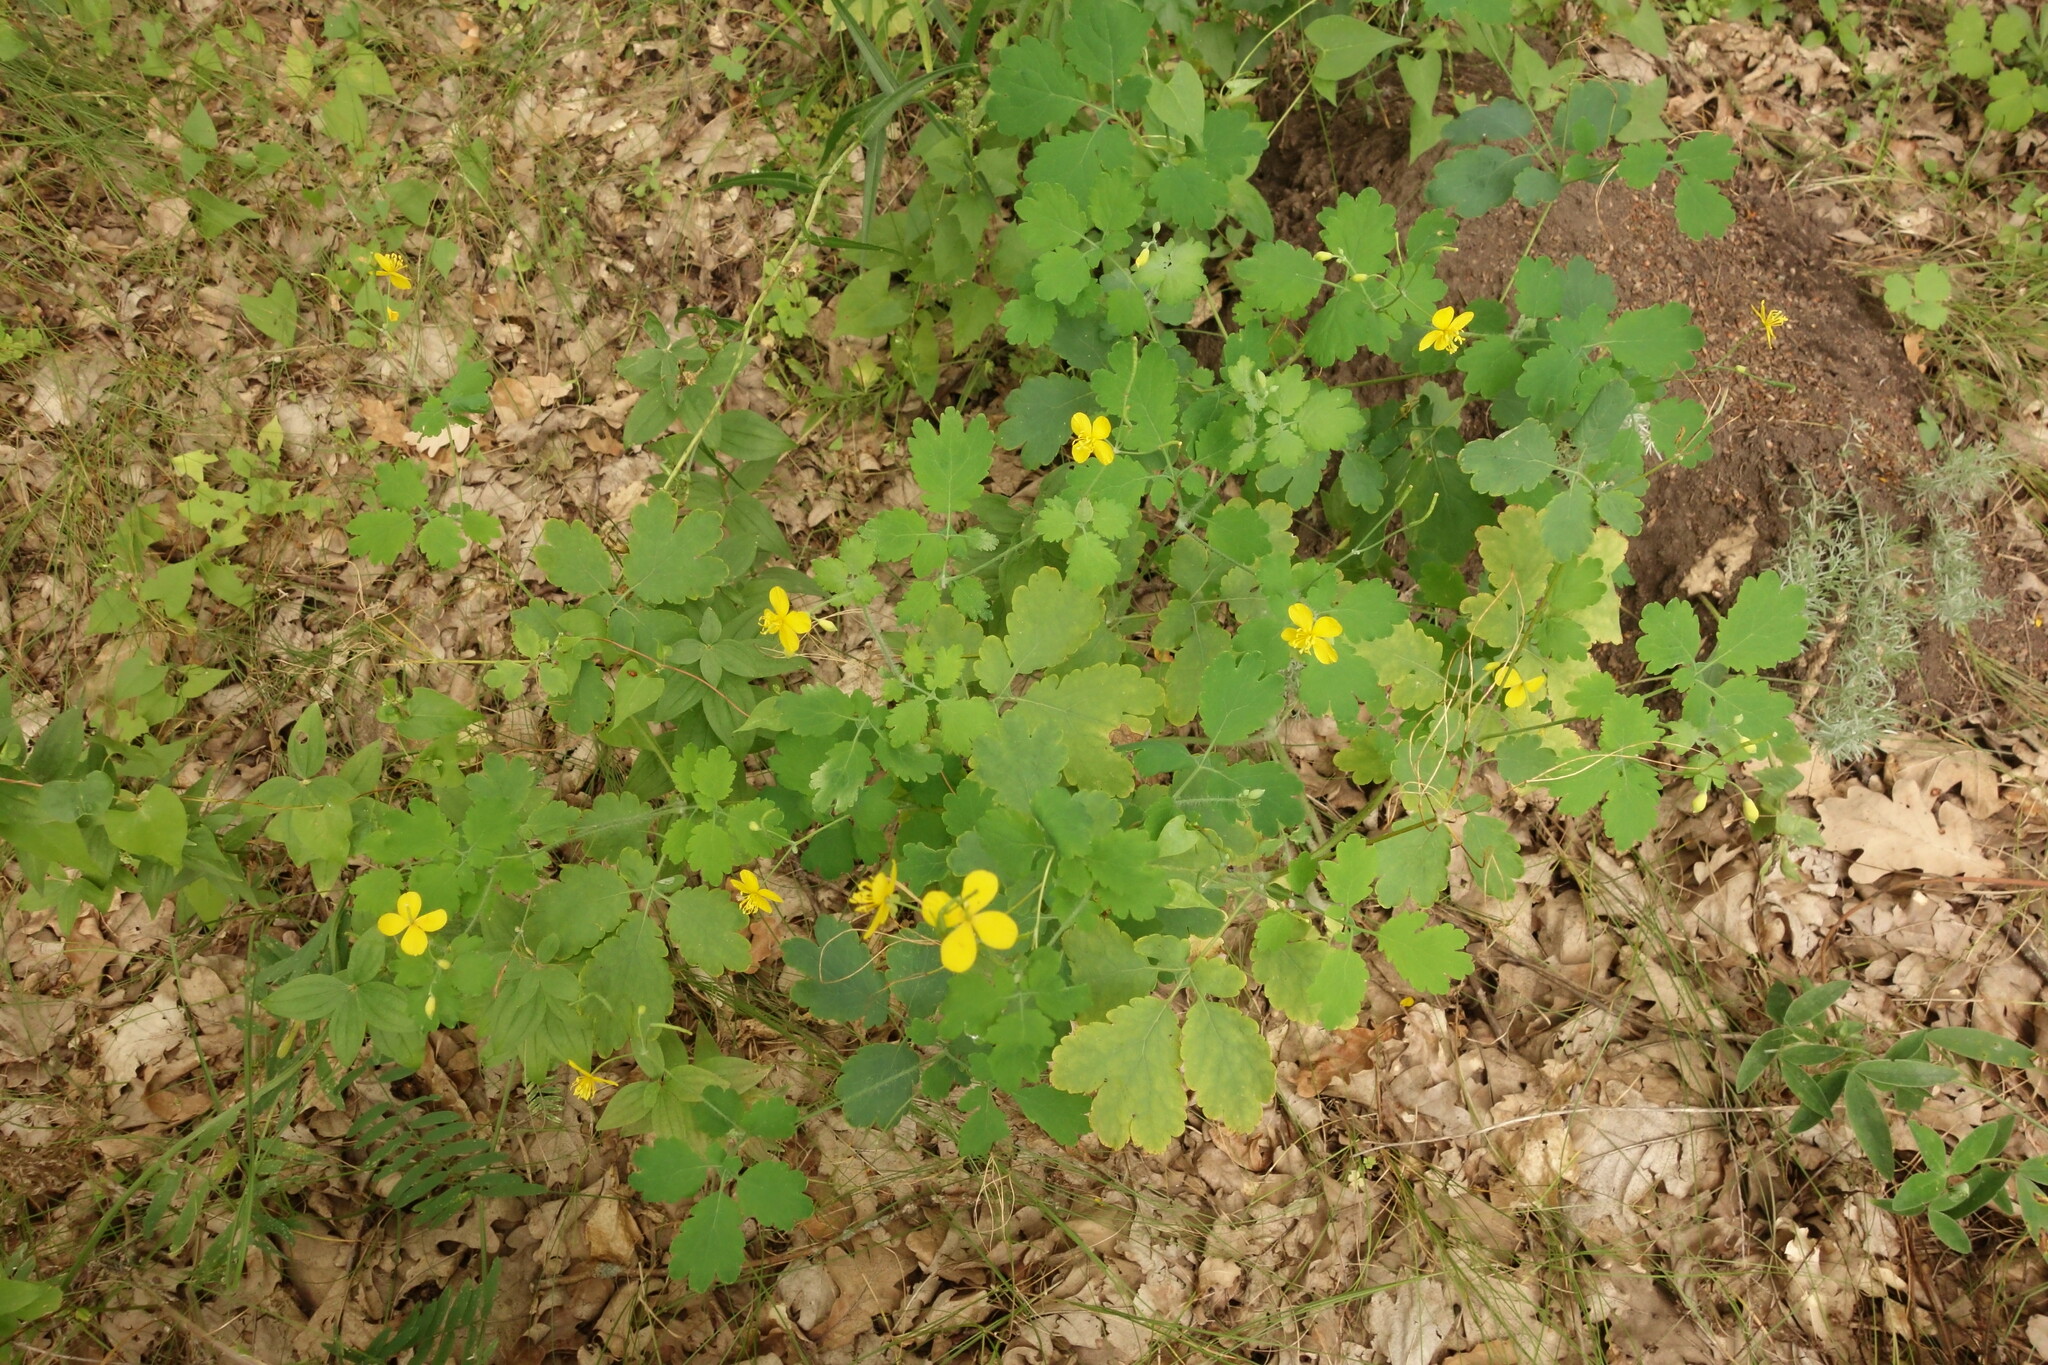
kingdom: Plantae
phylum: Tracheophyta
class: Magnoliopsida
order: Ranunculales
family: Papaveraceae
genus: Chelidonium
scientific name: Chelidonium majus
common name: Greater celandine
